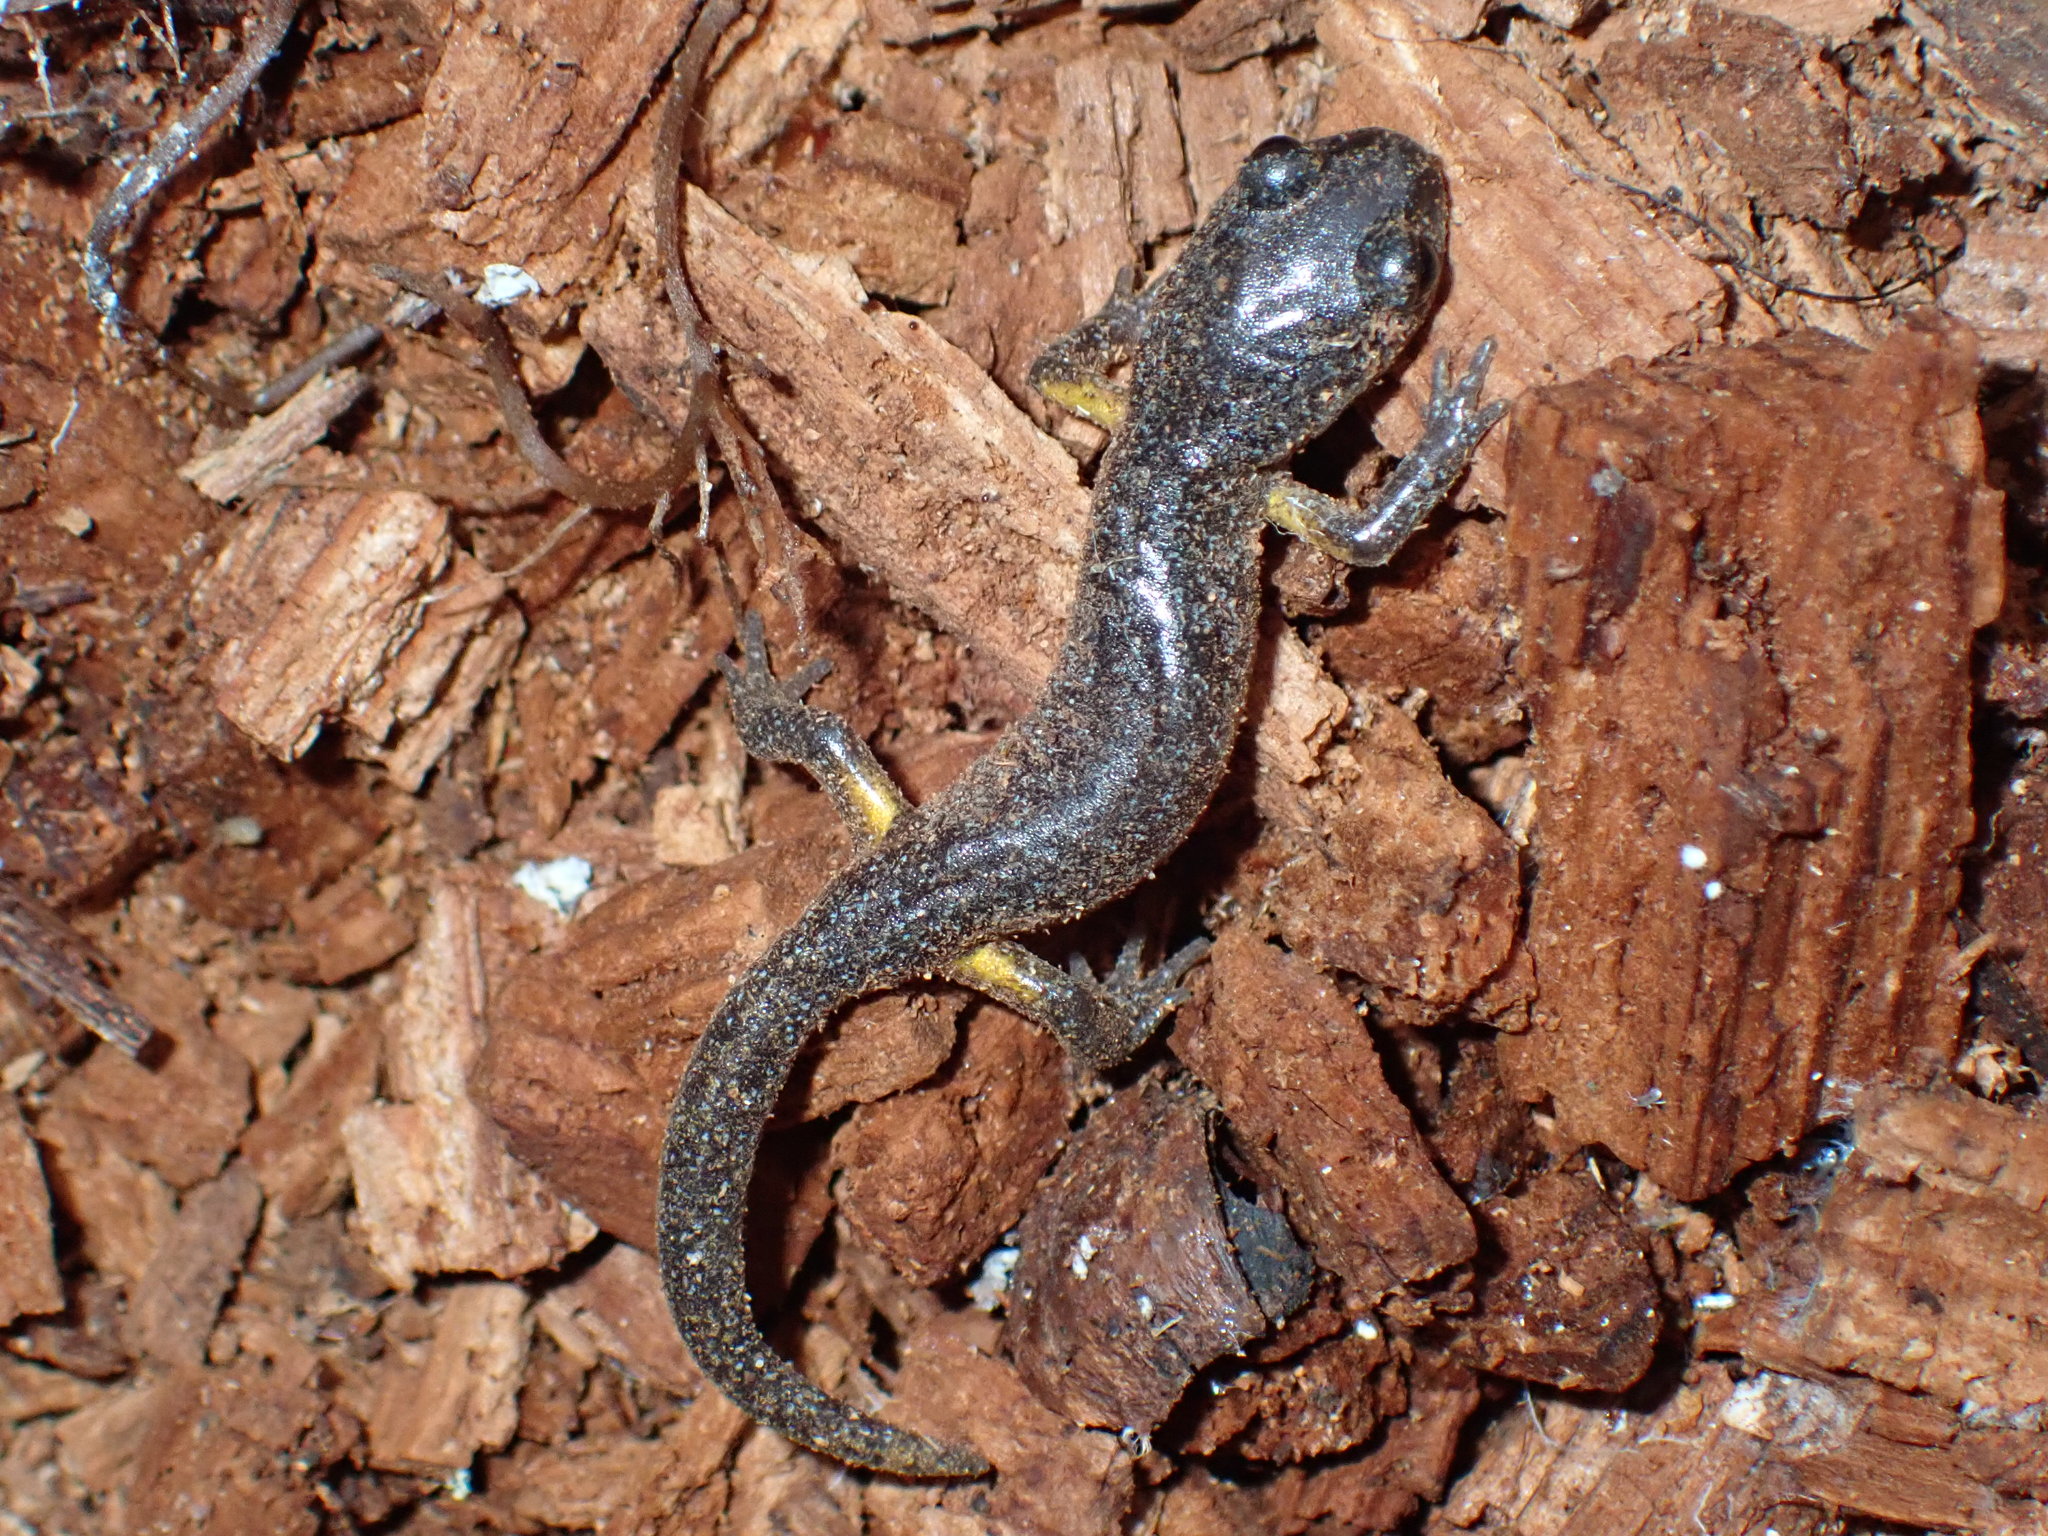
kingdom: Animalia
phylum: Chordata
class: Amphibia
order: Caudata
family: Plethodontidae
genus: Ensatina
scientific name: Ensatina eschscholtzii
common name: Ensatina
